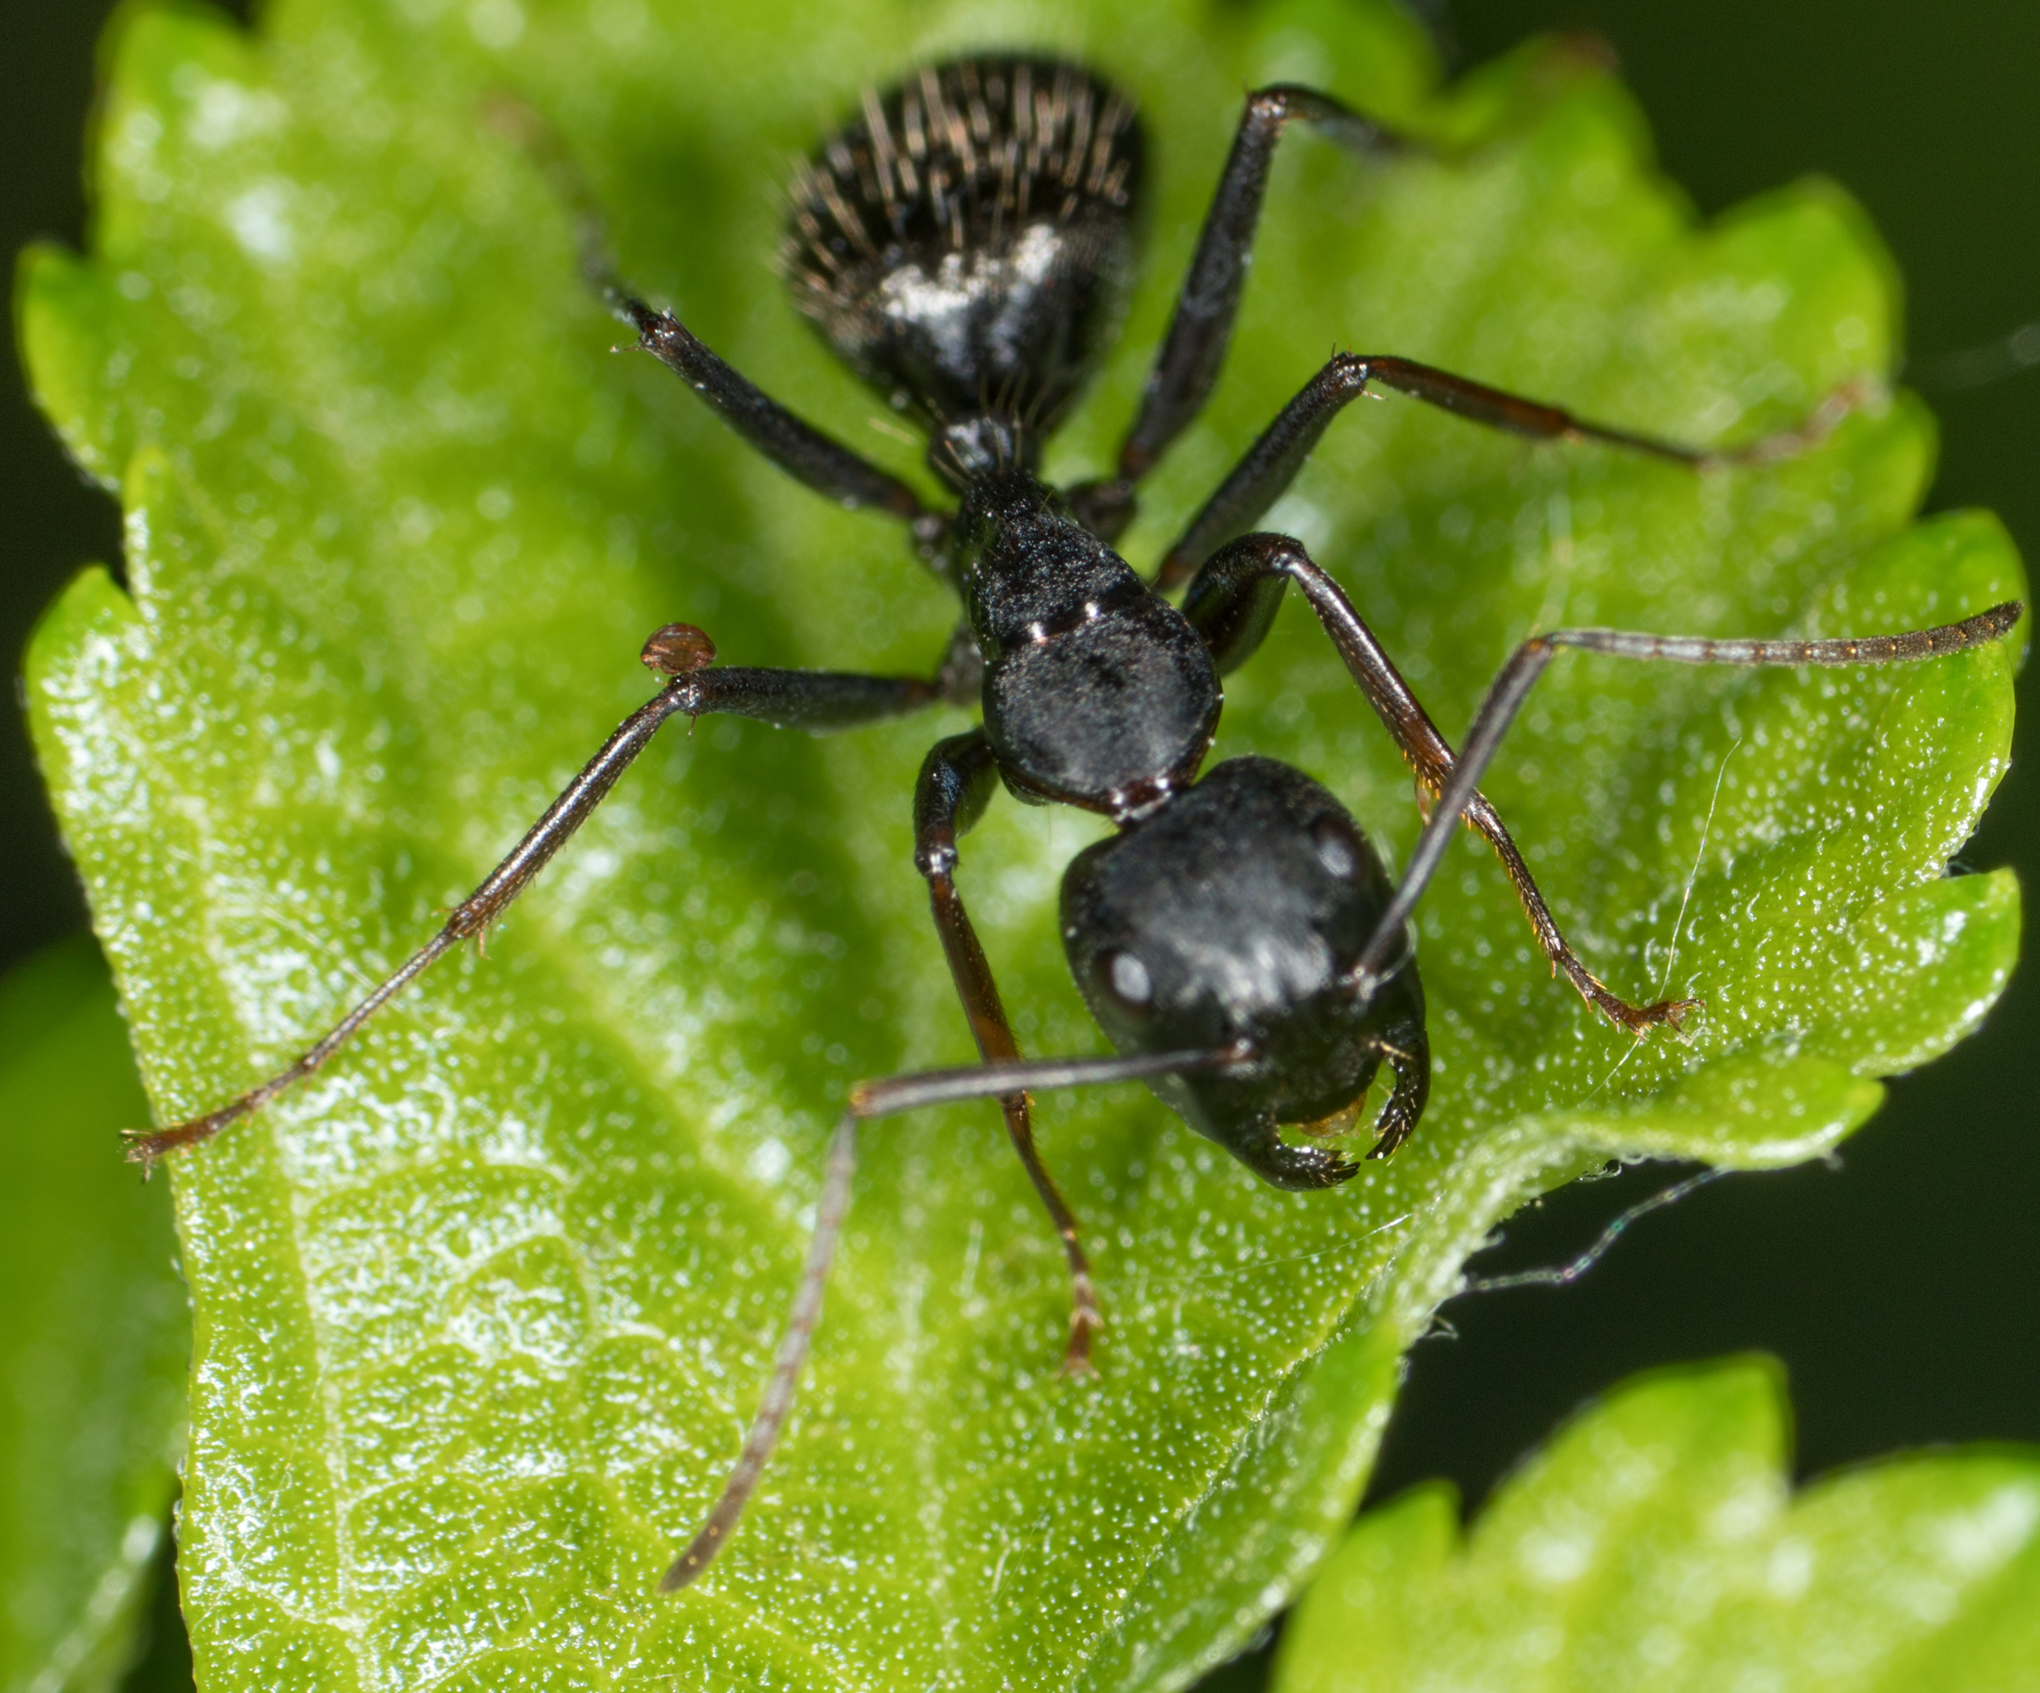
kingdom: Animalia
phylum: Arthropoda
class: Insecta
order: Hymenoptera
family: Formicidae
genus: Camponotus
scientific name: Camponotus pennsylvanicus
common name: Black carpenter ant
